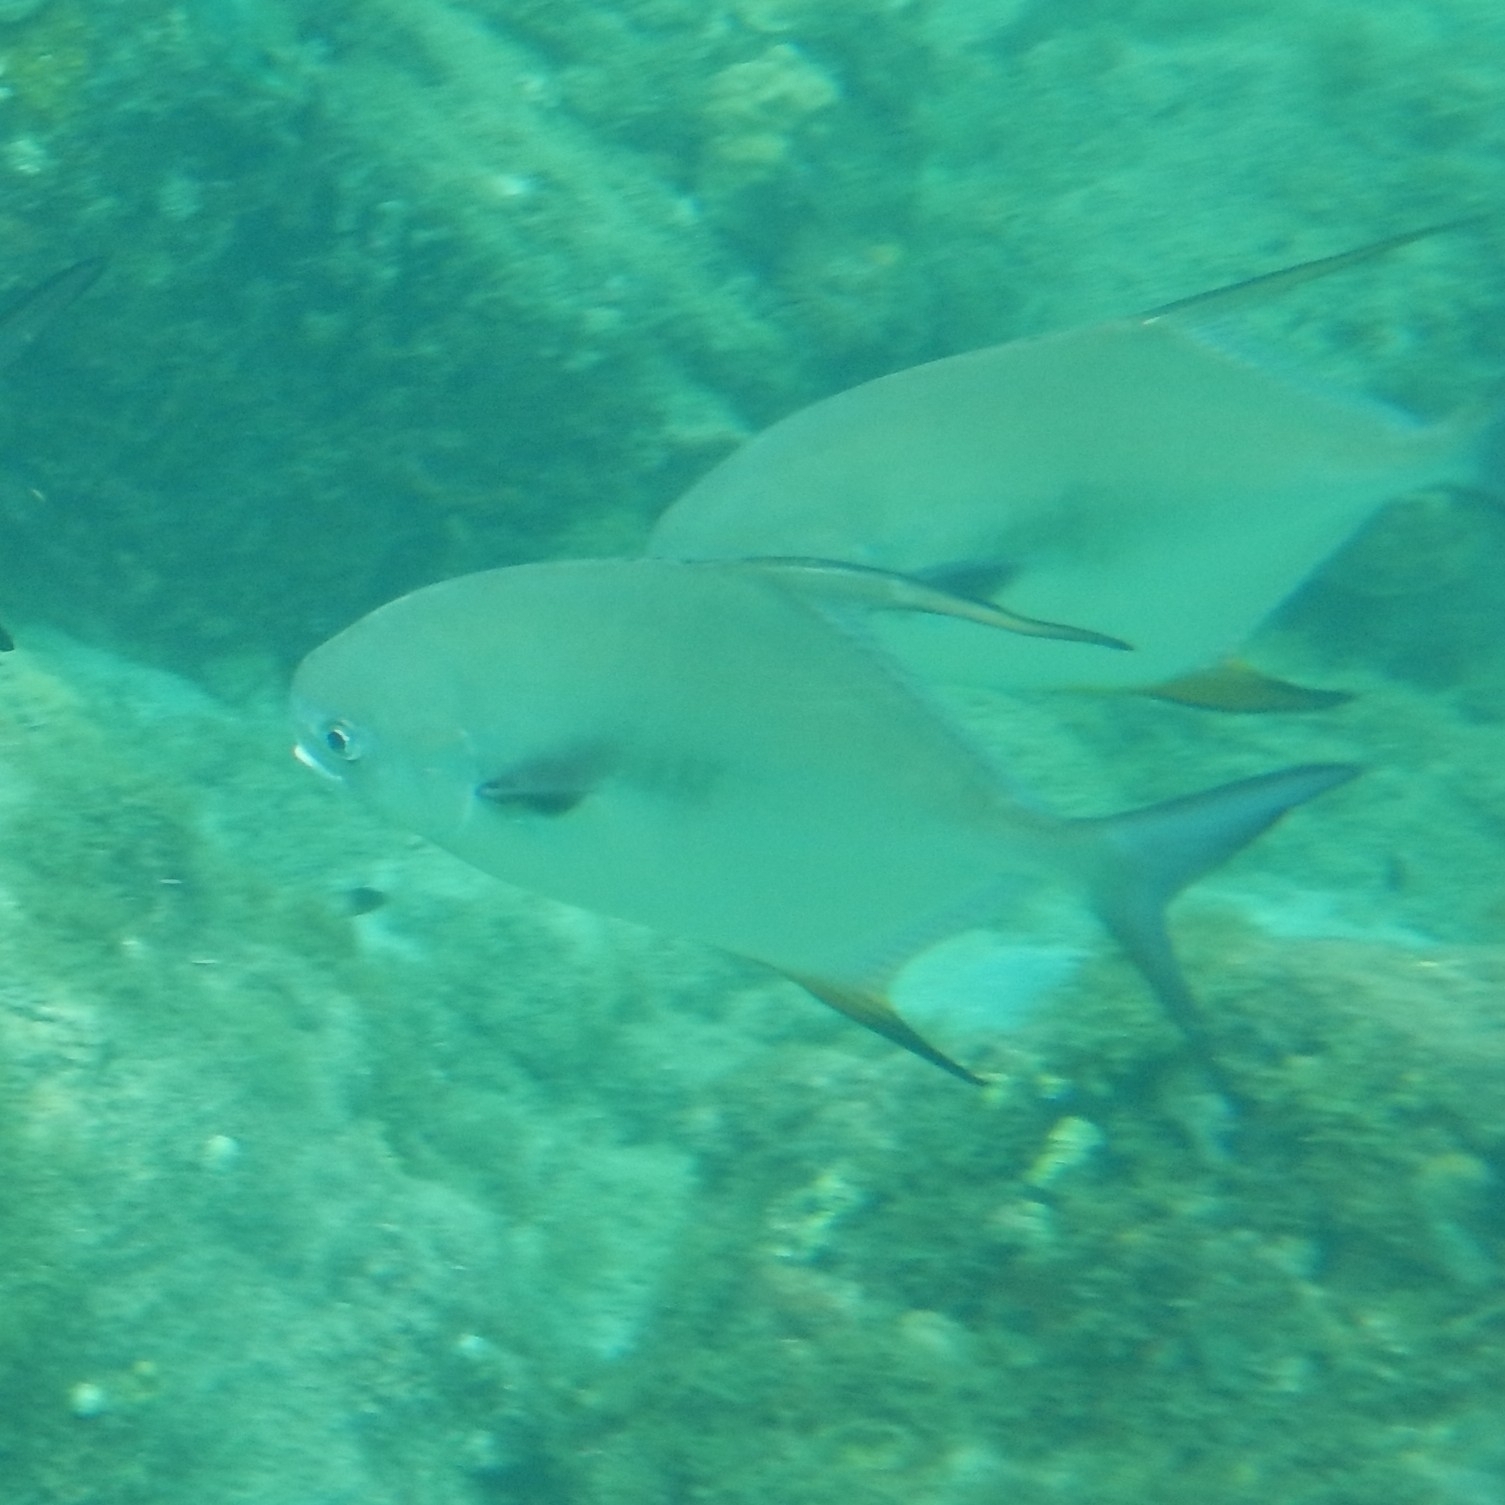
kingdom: Animalia
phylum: Chordata
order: Perciformes
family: Carangidae
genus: Trachinotus
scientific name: Trachinotus falcatus
